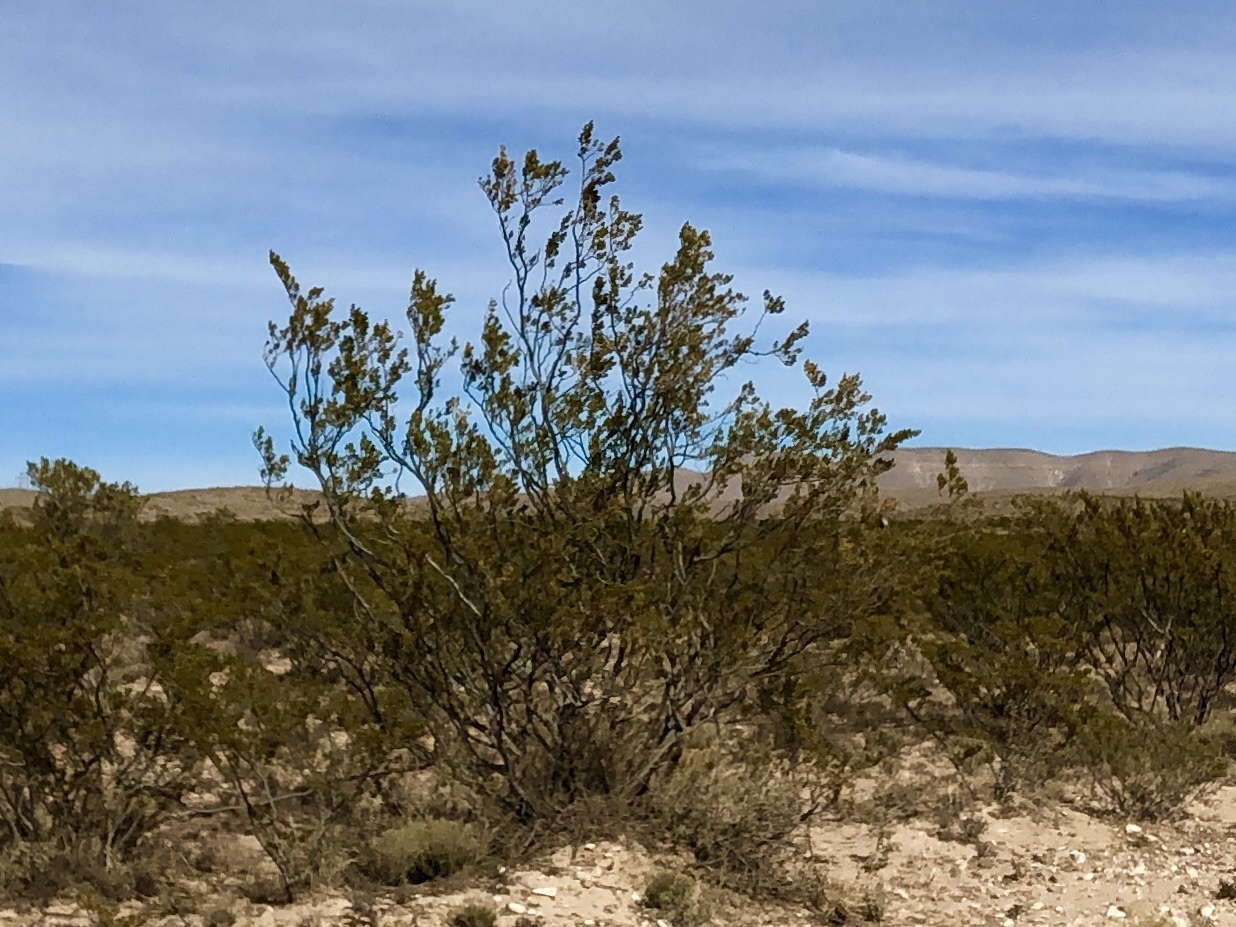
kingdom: Plantae
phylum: Tracheophyta
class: Magnoliopsida
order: Zygophyllales
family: Zygophyllaceae
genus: Larrea
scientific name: Larrea tridentata
